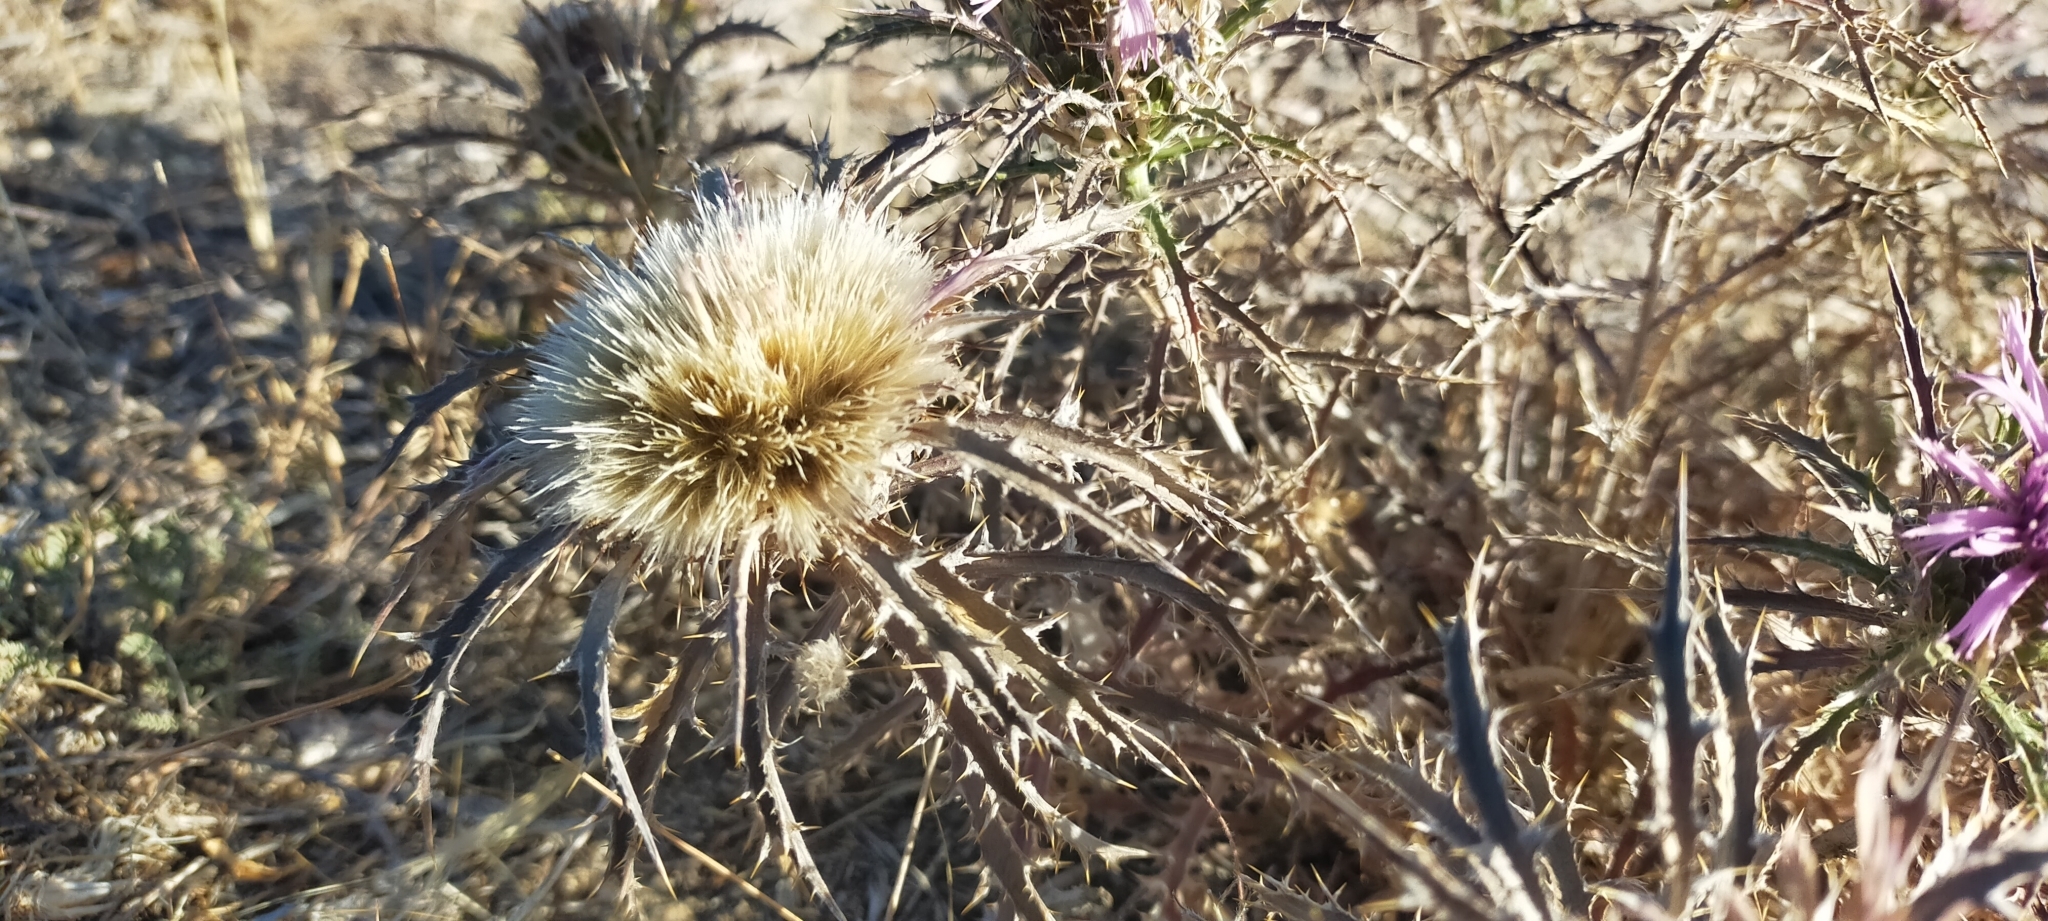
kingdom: Plantae
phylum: Tracheophyta
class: Magnoliopsida
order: Asterales
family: Asteraceae
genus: Atractylis
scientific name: Atractylis humilis
